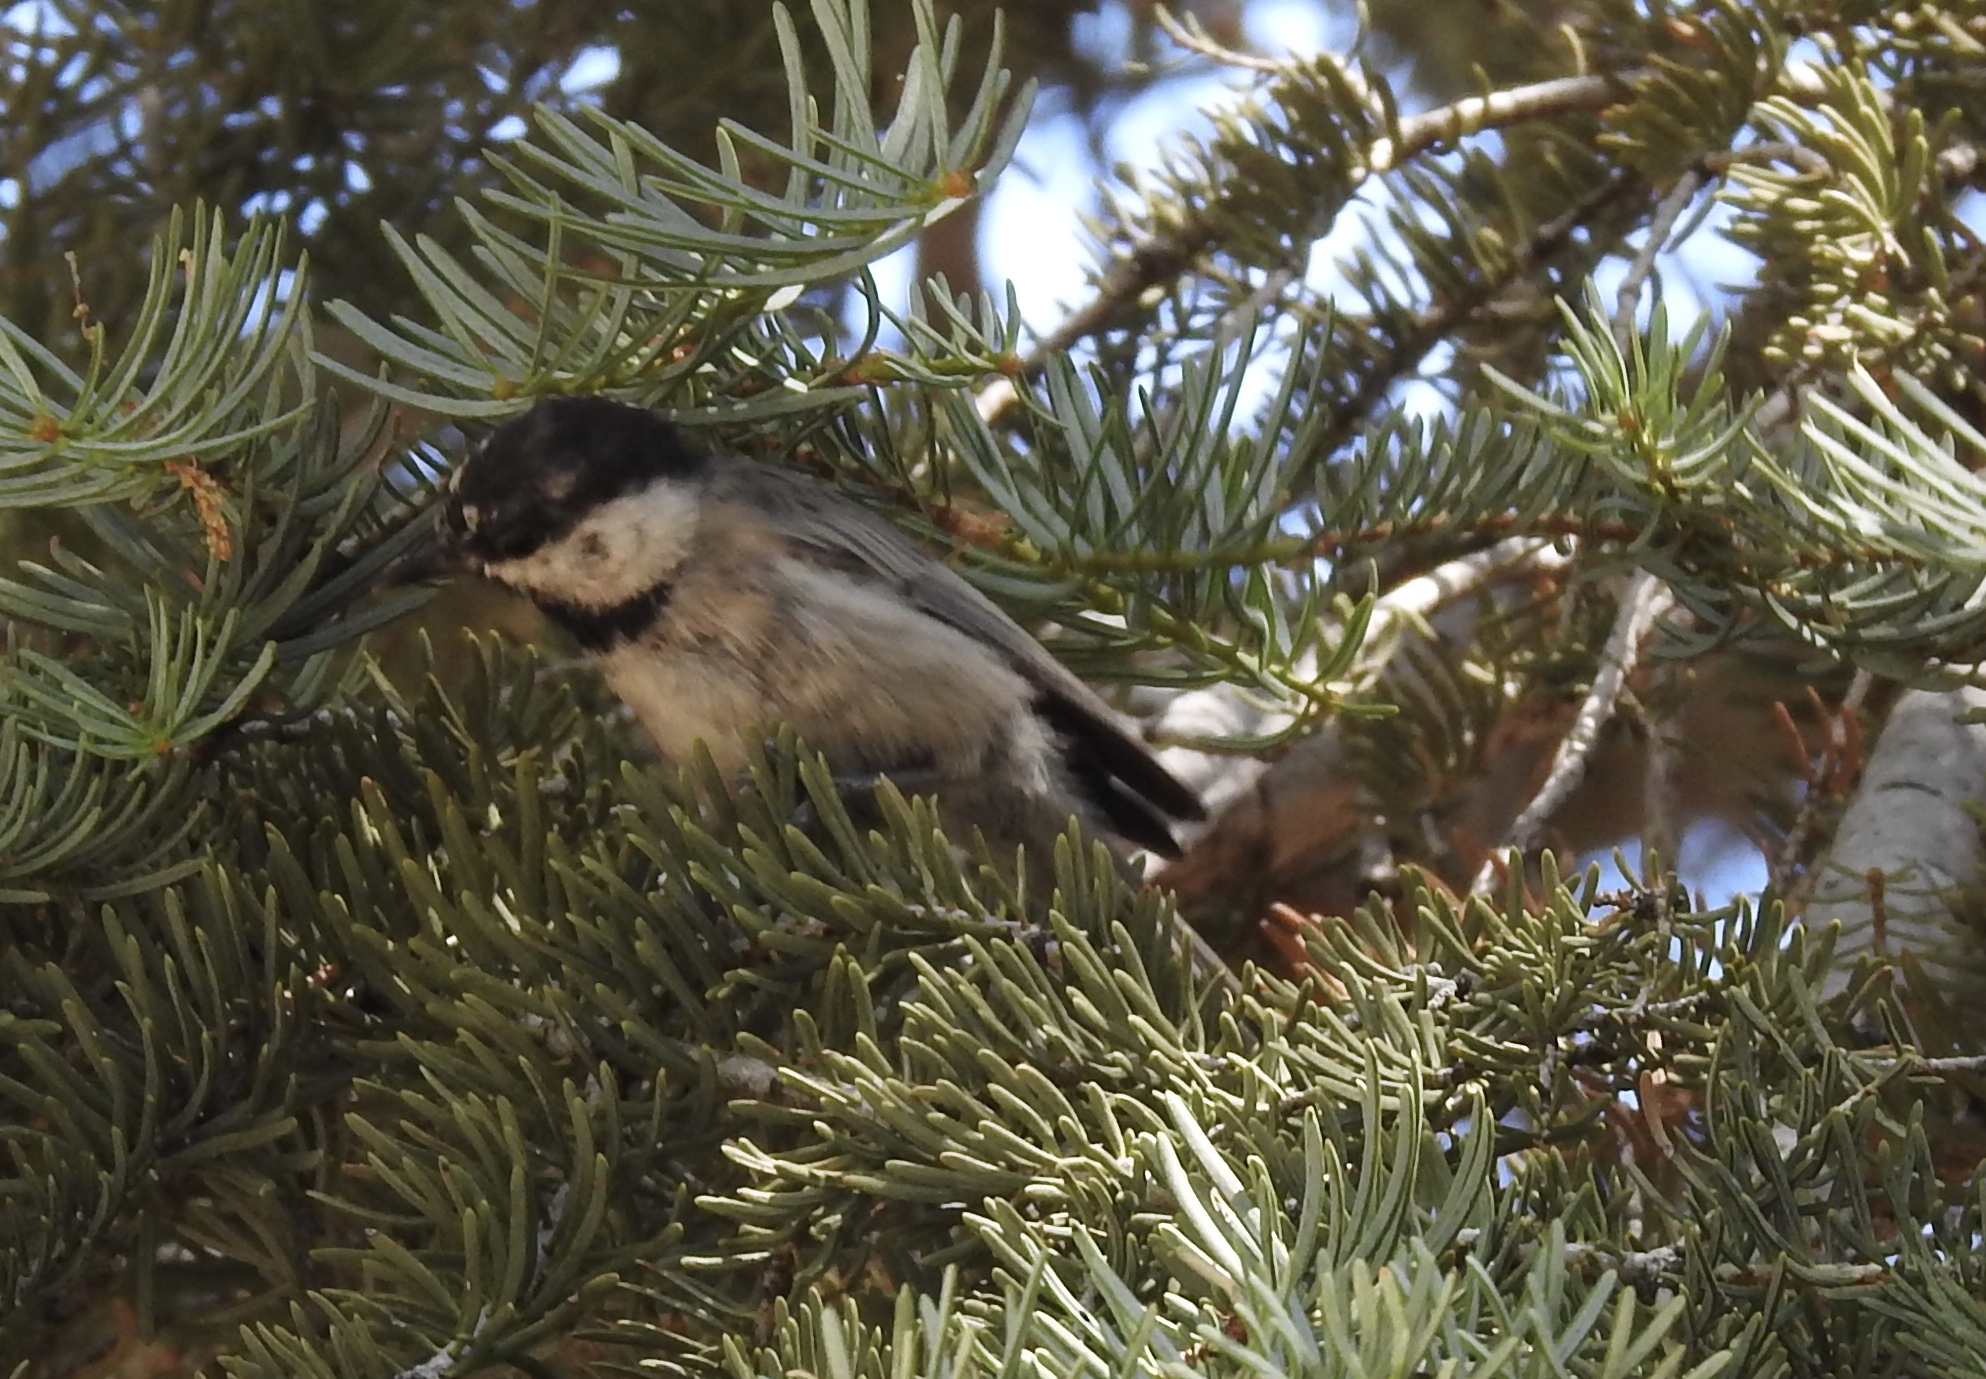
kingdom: Animalia
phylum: Chordata
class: Aves
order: Passeriformes
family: Paridae
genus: Poecile
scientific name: Poecile gambeli
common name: Mountain chickadee
